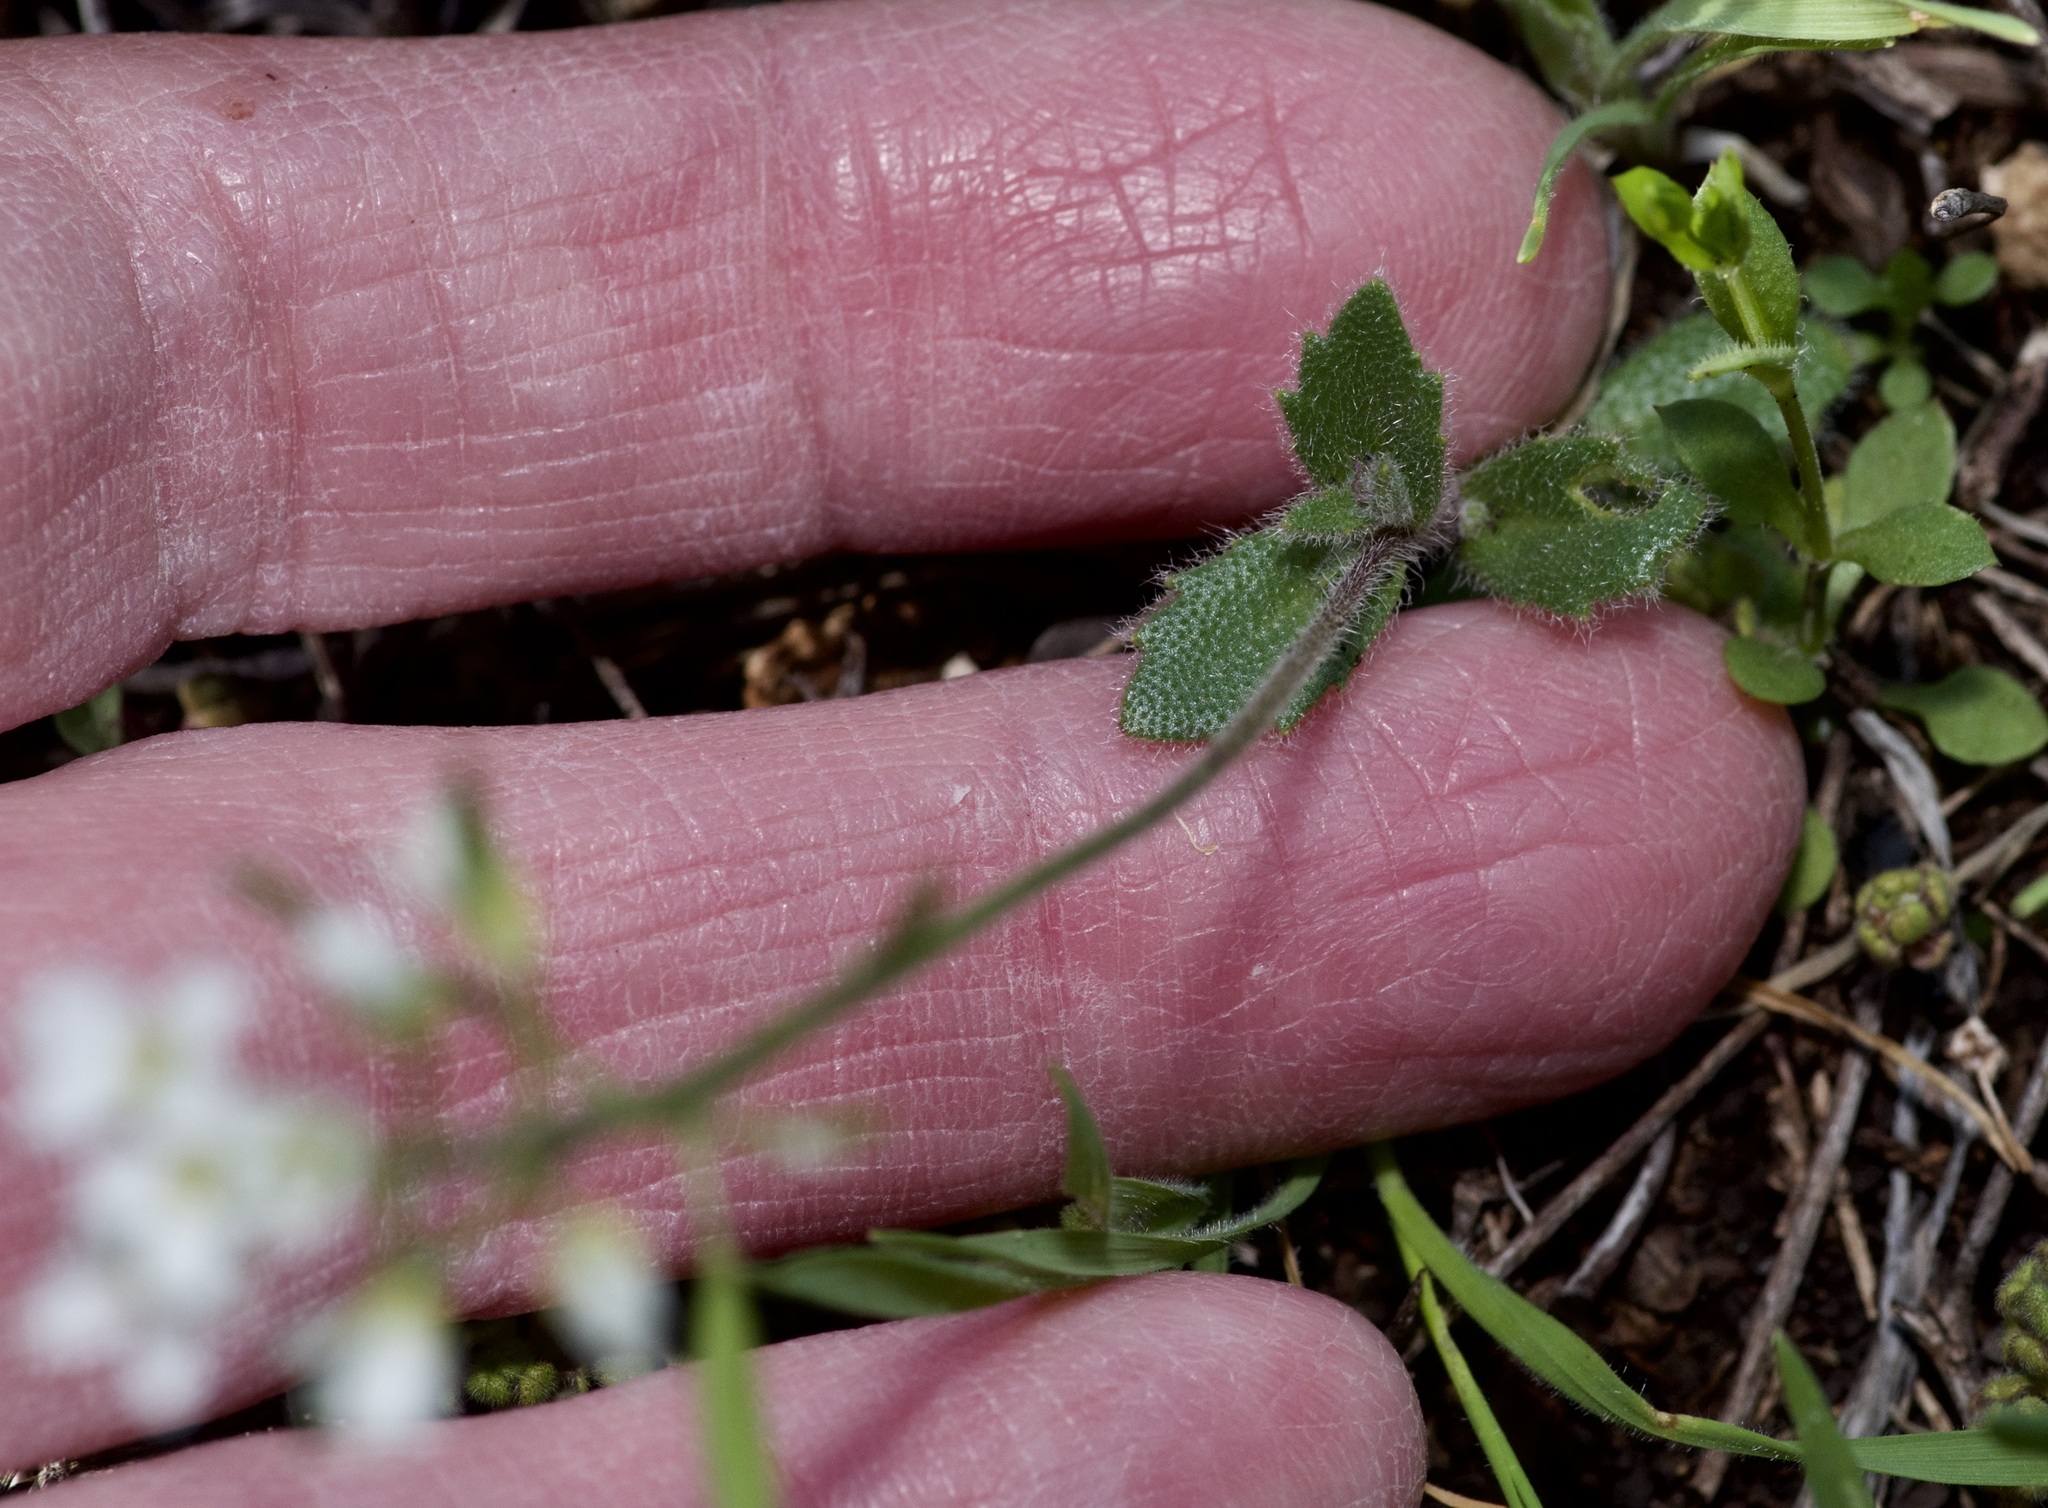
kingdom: Plantae
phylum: Tracheophyta
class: Magnoliopsida
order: Brassicales
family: Brassicaceae
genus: Tomostima
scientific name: Tomostima cuneifolia
